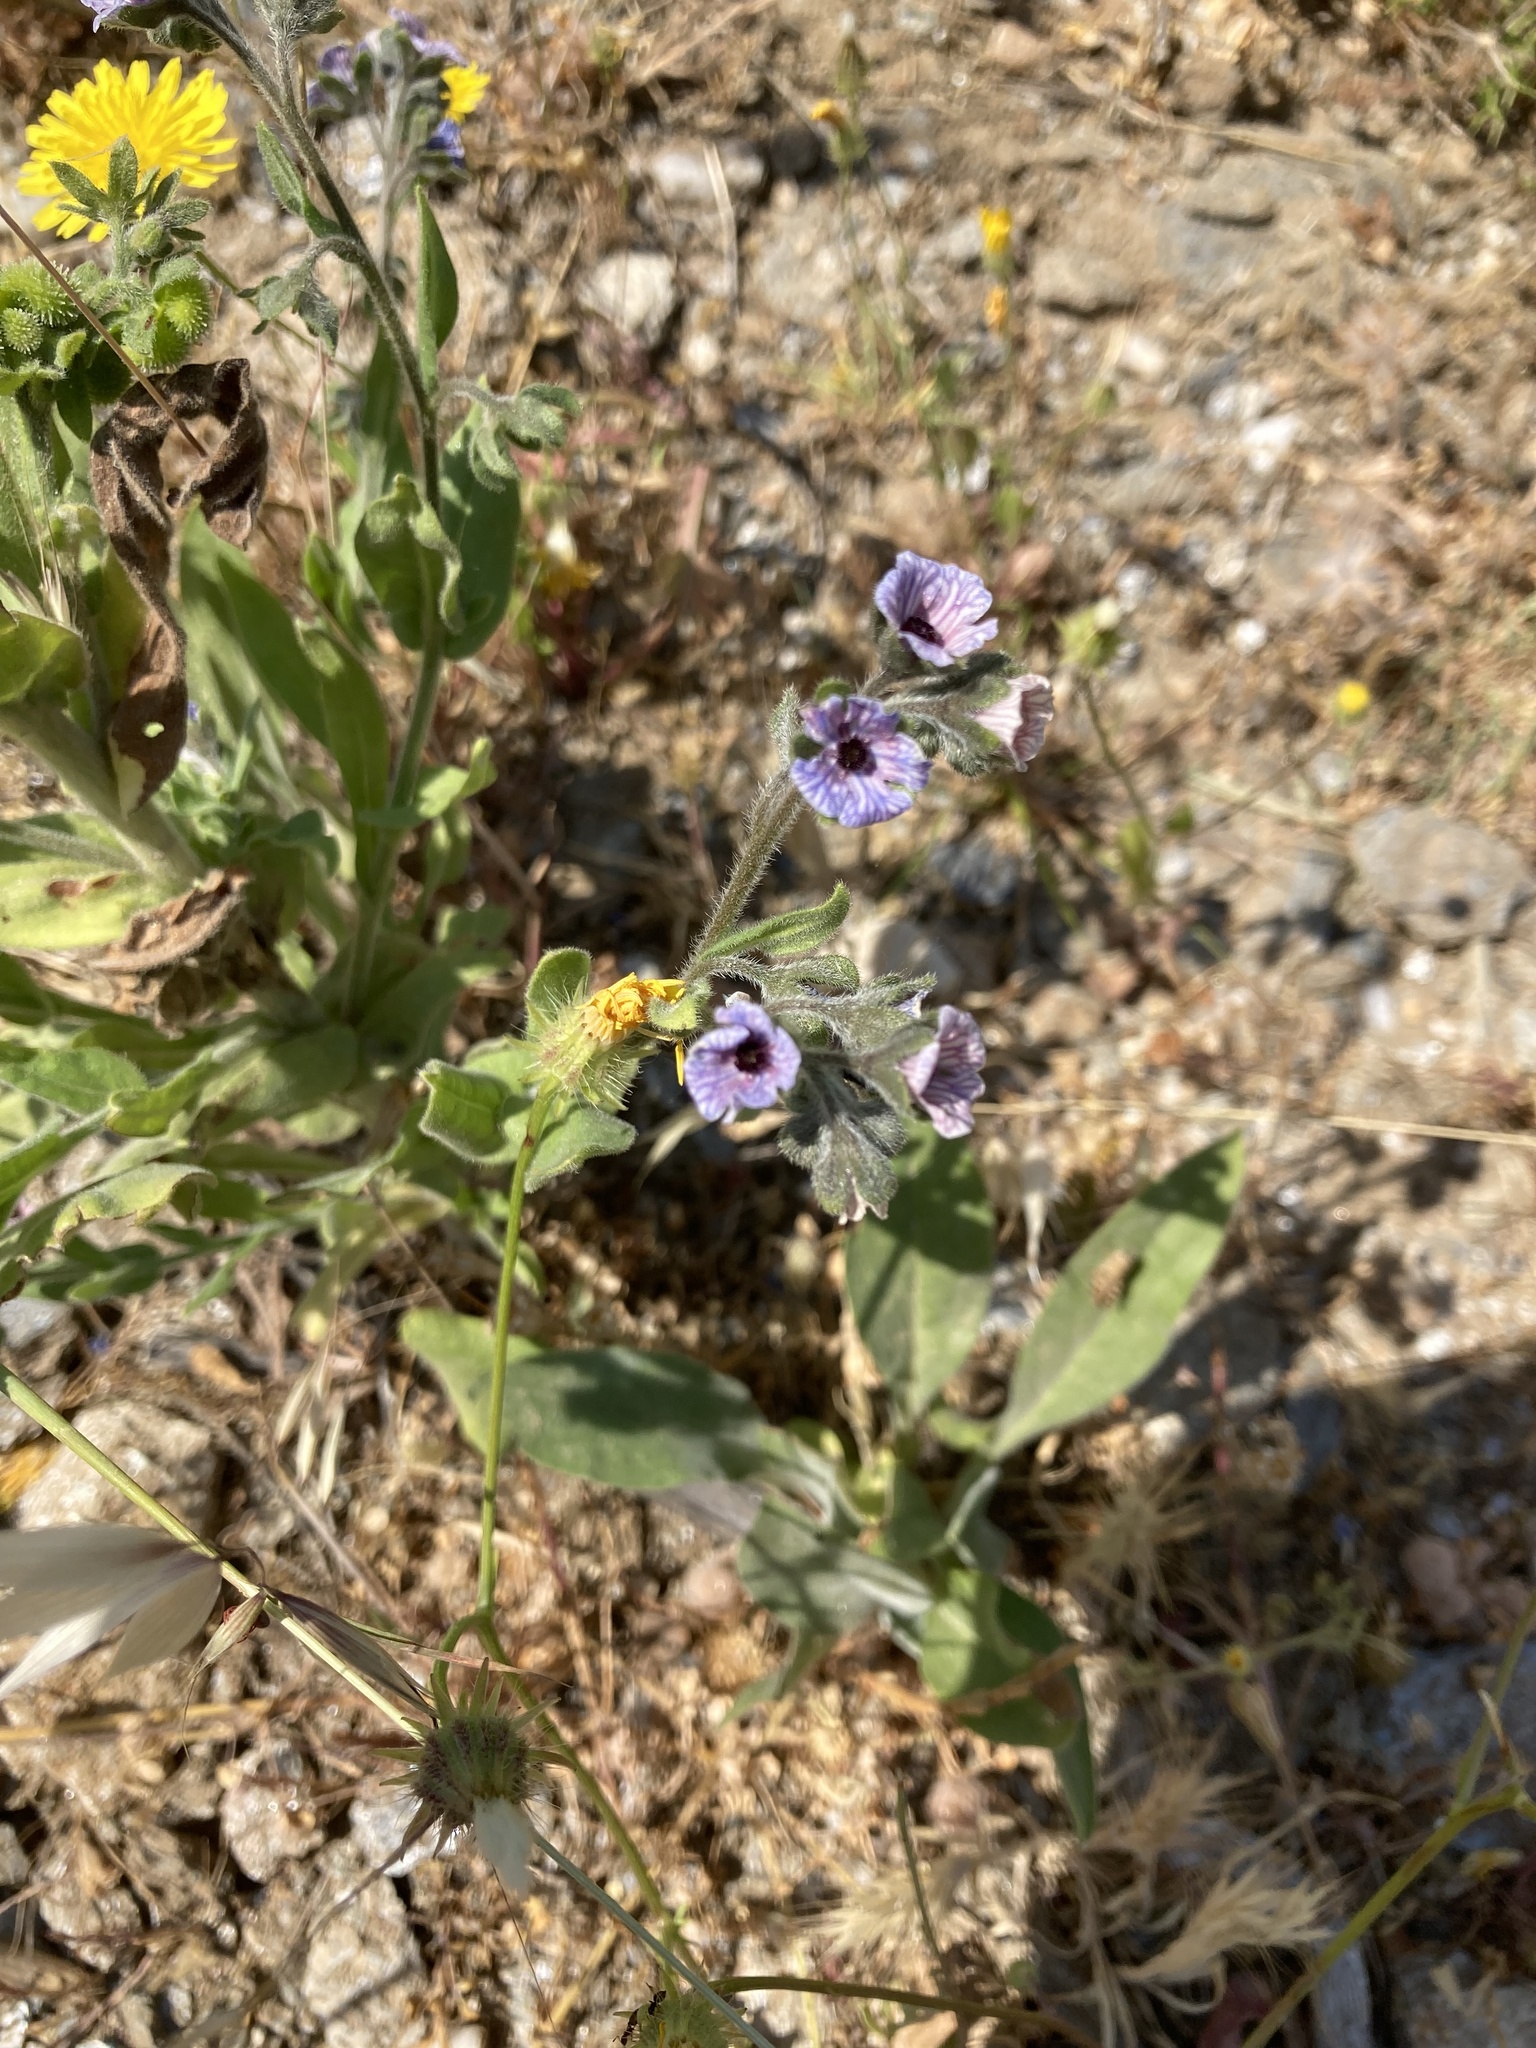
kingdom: Plantae
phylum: Tracheophyta
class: Magnoliopsida
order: Boraginales
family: Boraginaceae
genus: Cynoglossum
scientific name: Cynoglossum creticum
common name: Blue hound's tongue
